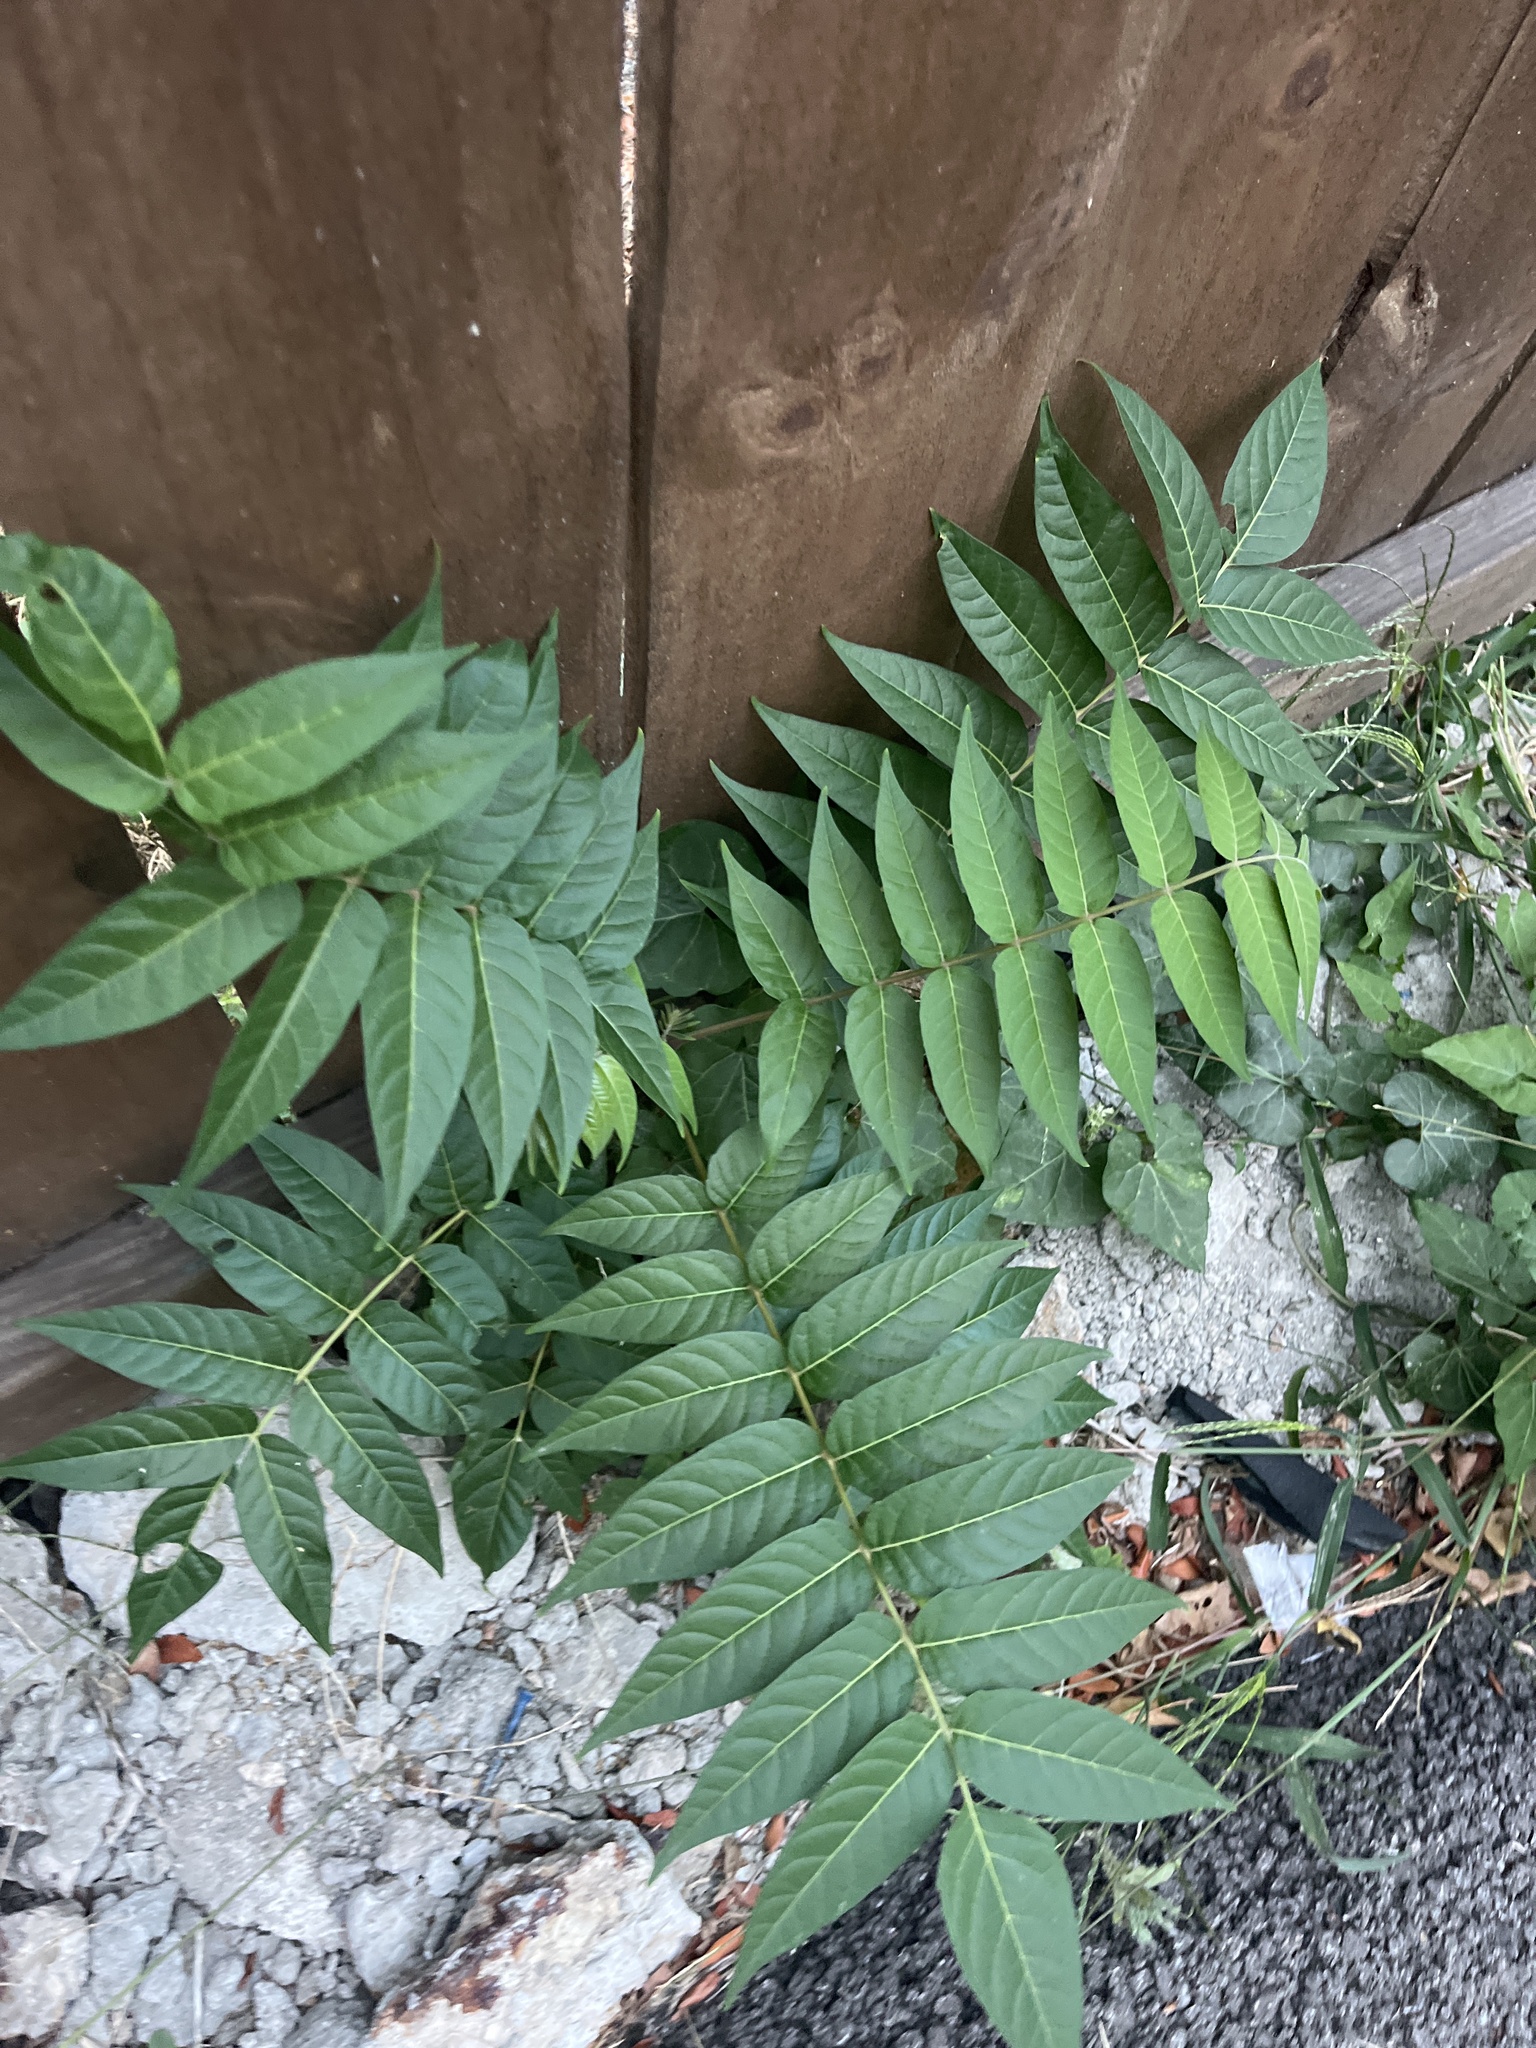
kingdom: Plantae
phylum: Tracheophyta
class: Magnoliopsida
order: Sapindales
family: Simaroubaceae
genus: Ailanthus
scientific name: Ailanthus altissima
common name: Tree-of-heaven
